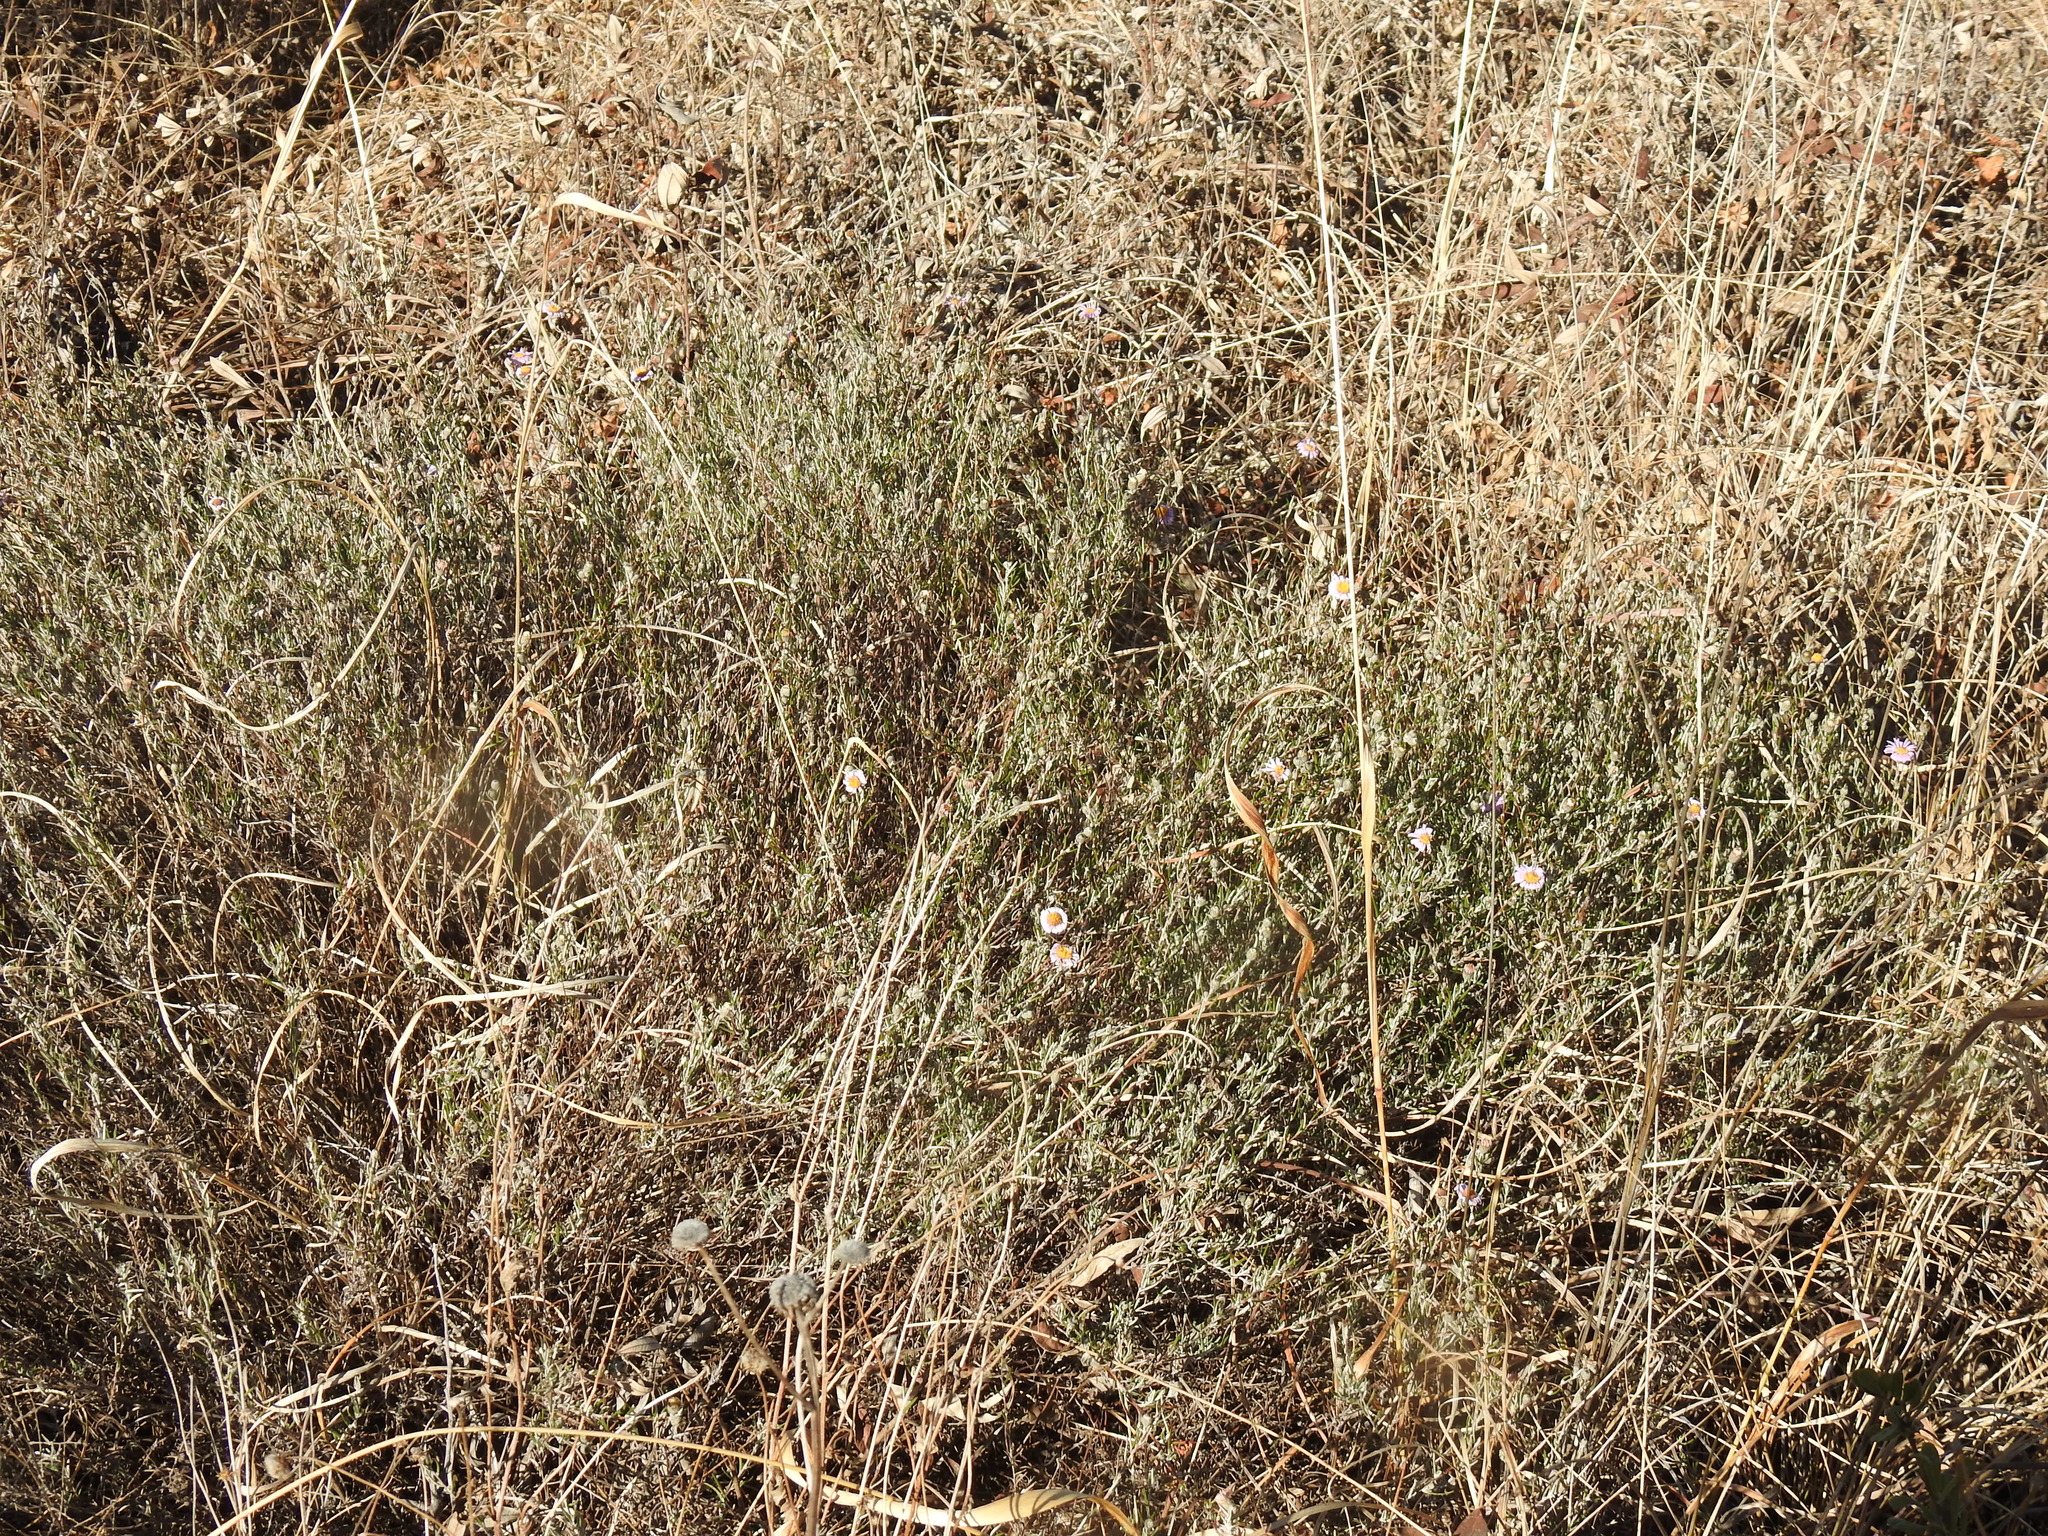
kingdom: Plantae
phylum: Tracheophyta
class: Magnoliopsida
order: Asterales
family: Asteraceae
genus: Athrixia
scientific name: Athrixia elata
